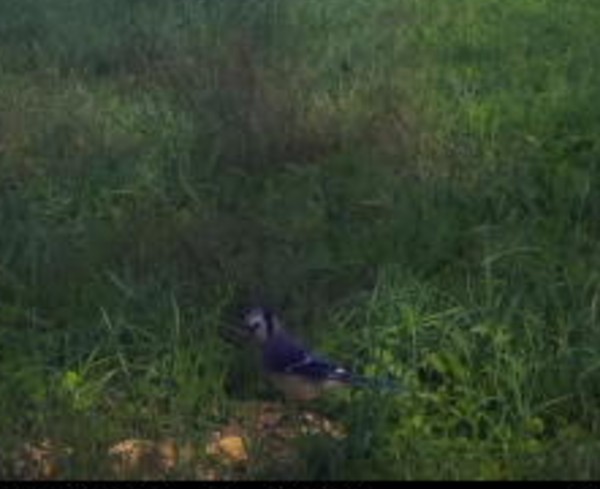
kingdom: Animalia
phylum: Chordata
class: Aves
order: Passeriformes
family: Corvidae
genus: Cyanocitta
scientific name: Cyanocitta cristata
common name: Blue jay
